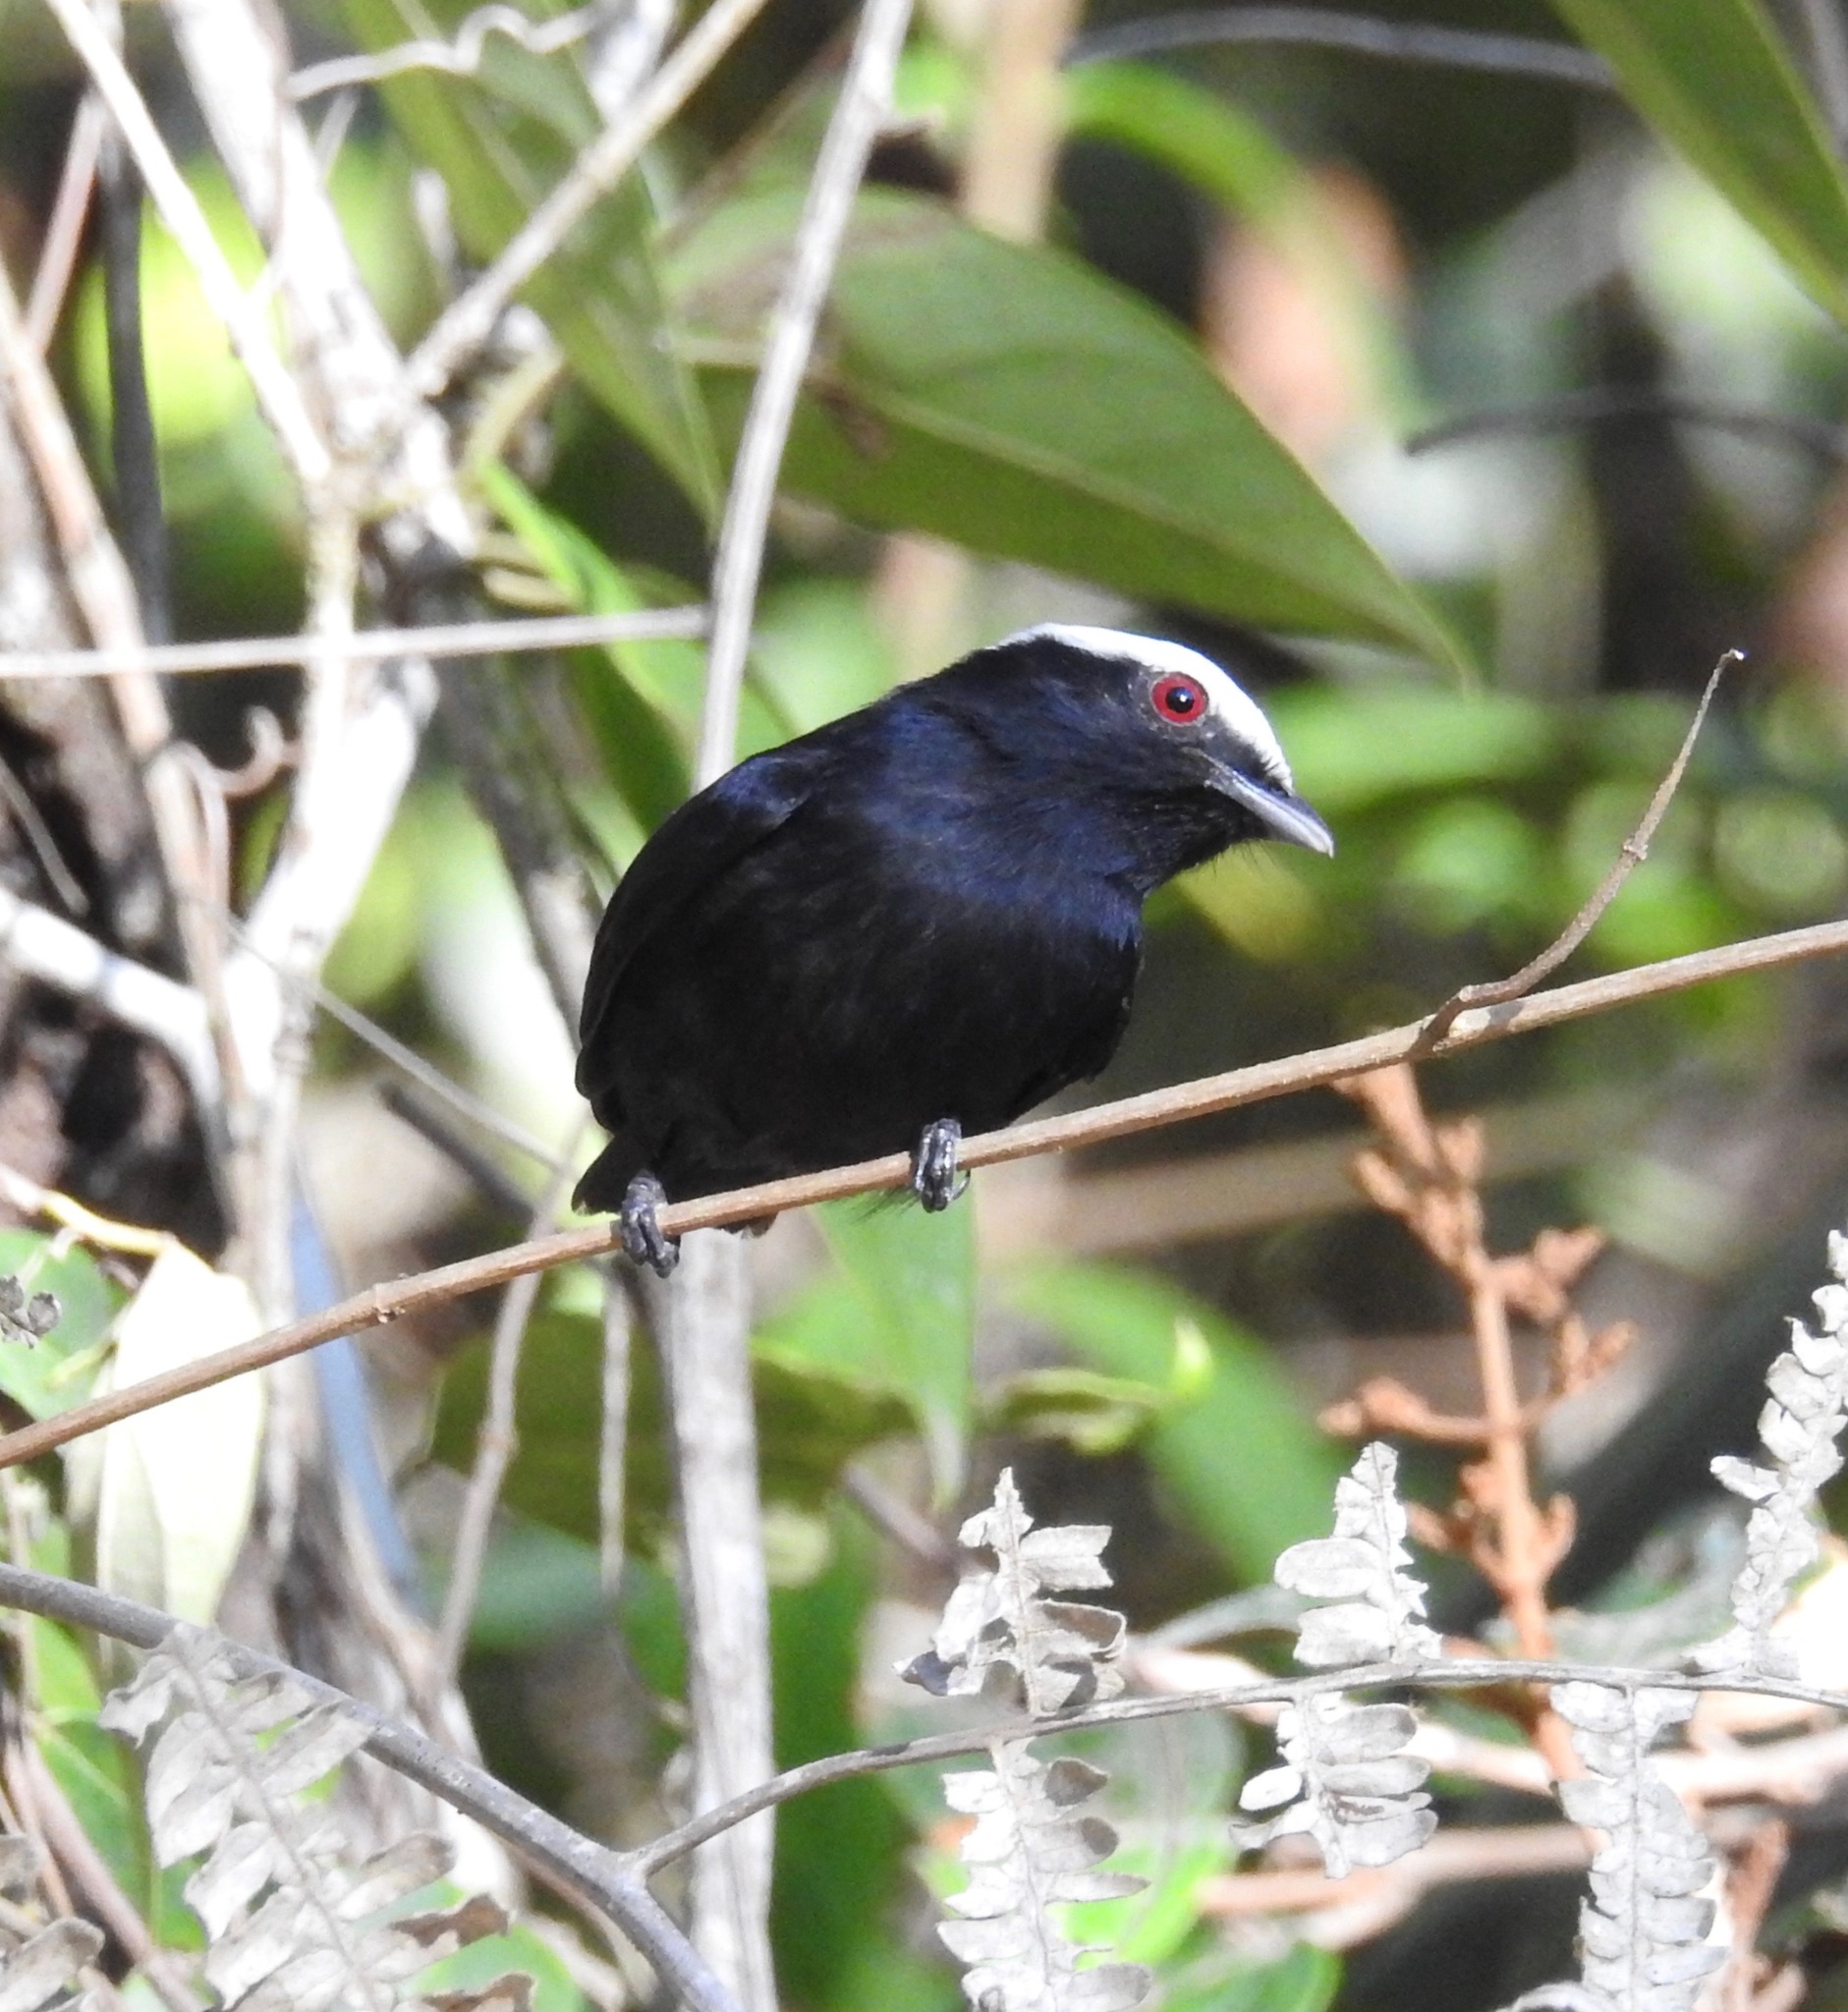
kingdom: Animalia
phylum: Chordata
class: Aves
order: Passeriformes
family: Pipridae
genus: Pipra
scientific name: Pipra pipra
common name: White-crowned manakin
